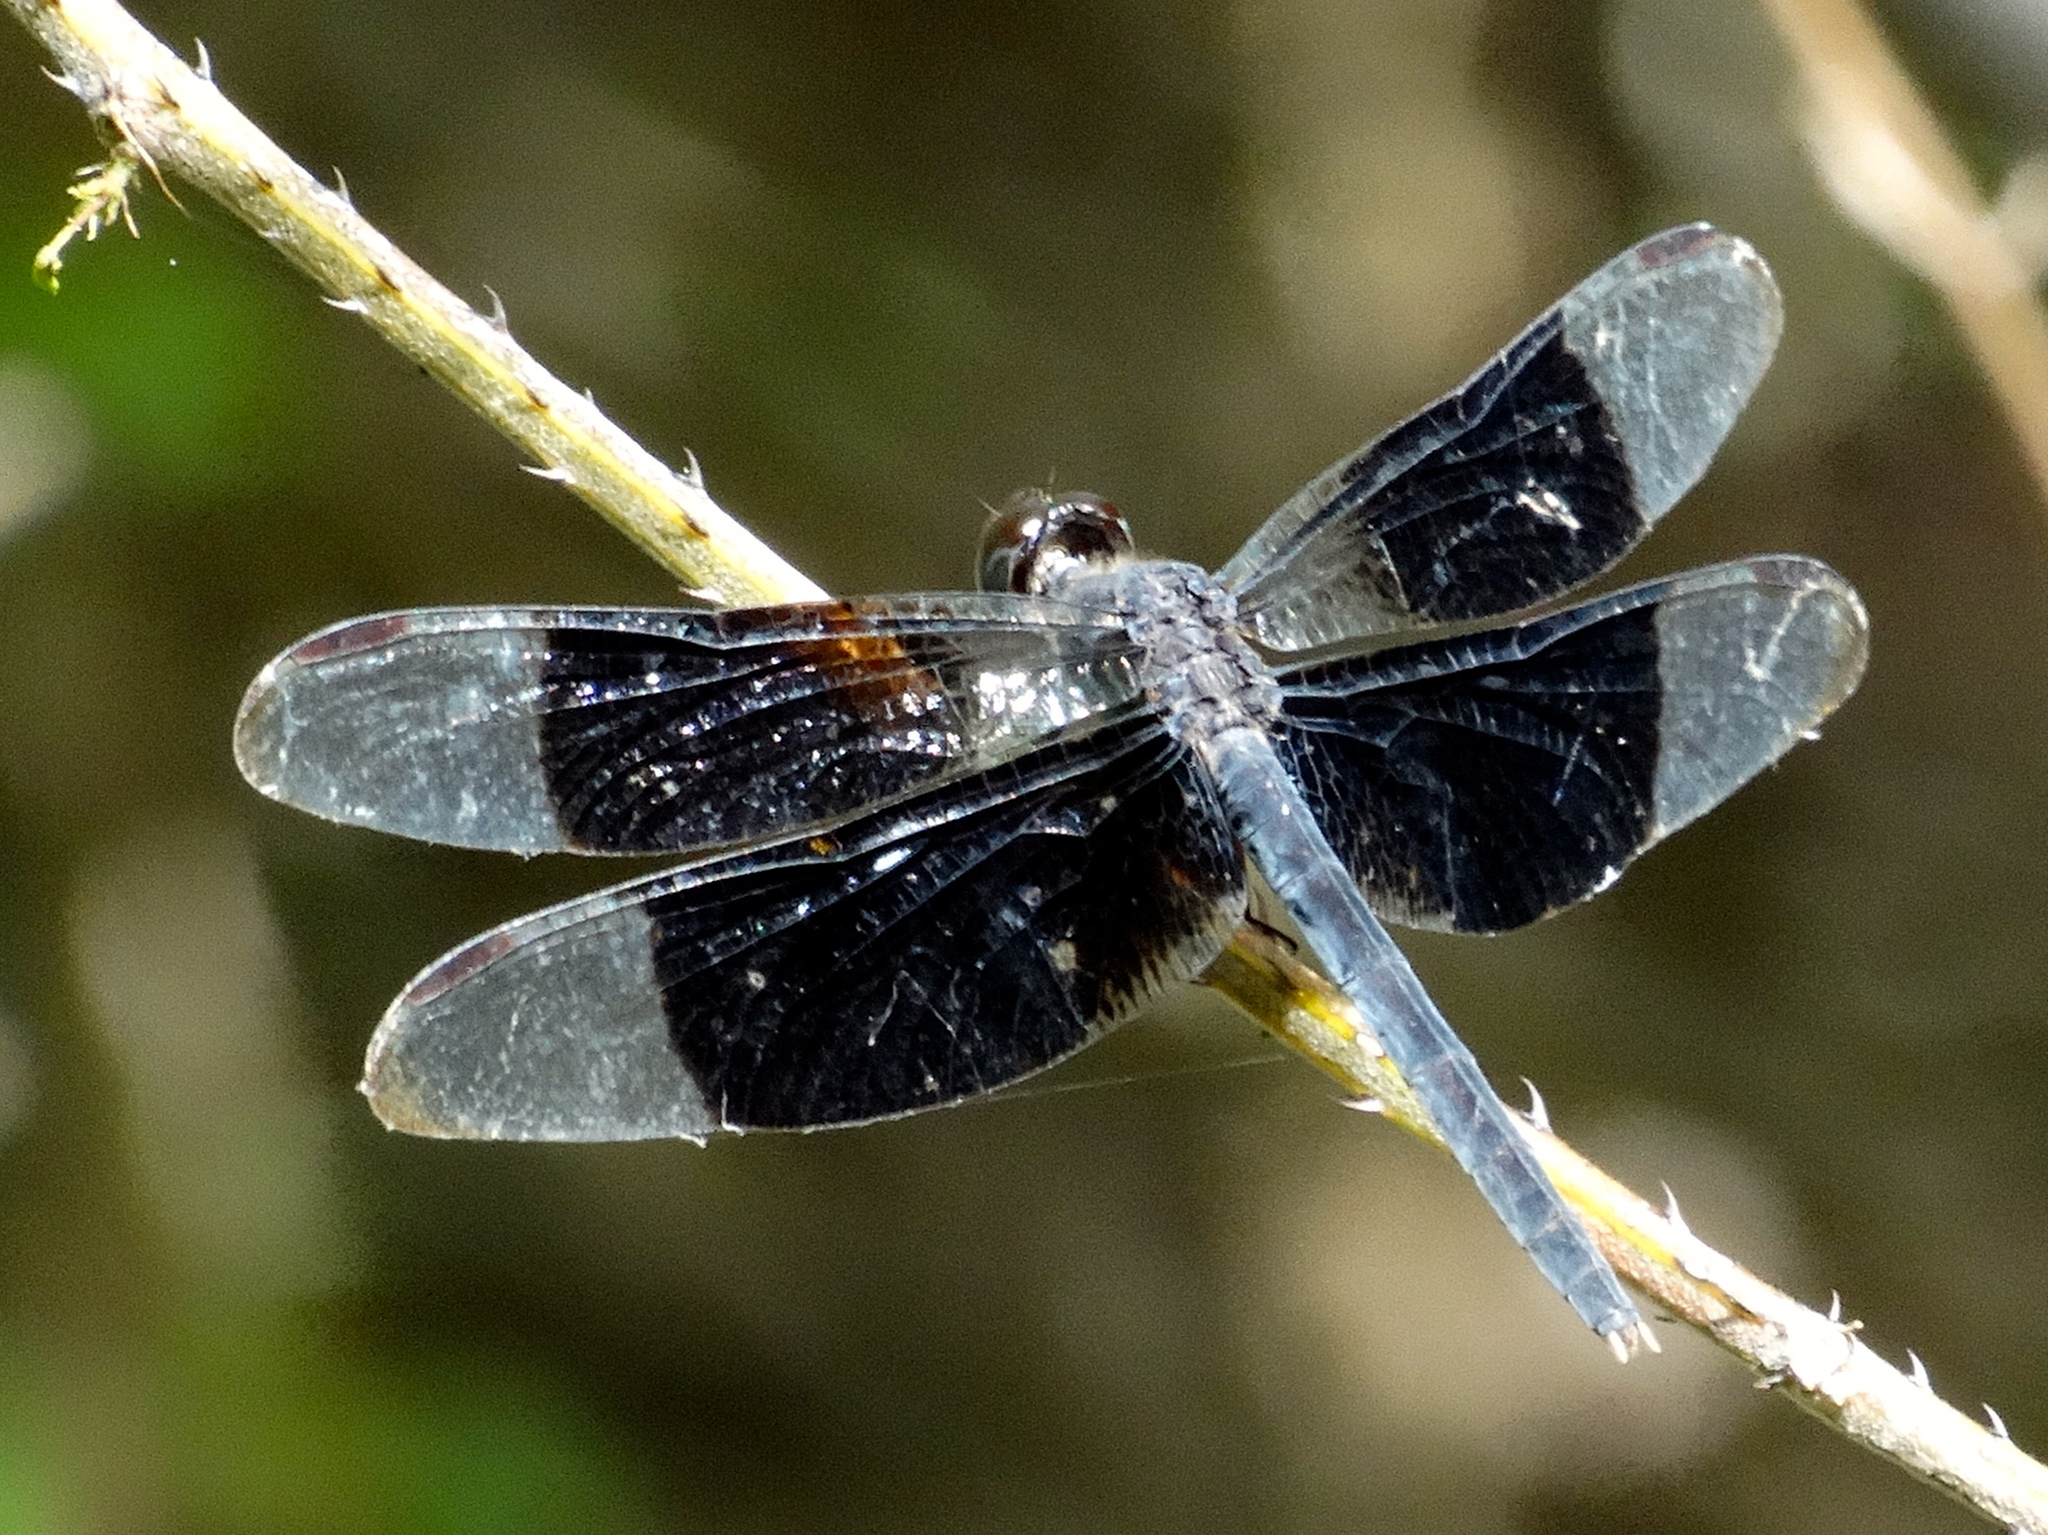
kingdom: Animalia
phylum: Arthropoda
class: Insecta
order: Odonata
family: Libellulidae
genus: Erythrodiplax
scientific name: Erythrodiplax funerea
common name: Black-winged dragonlet
